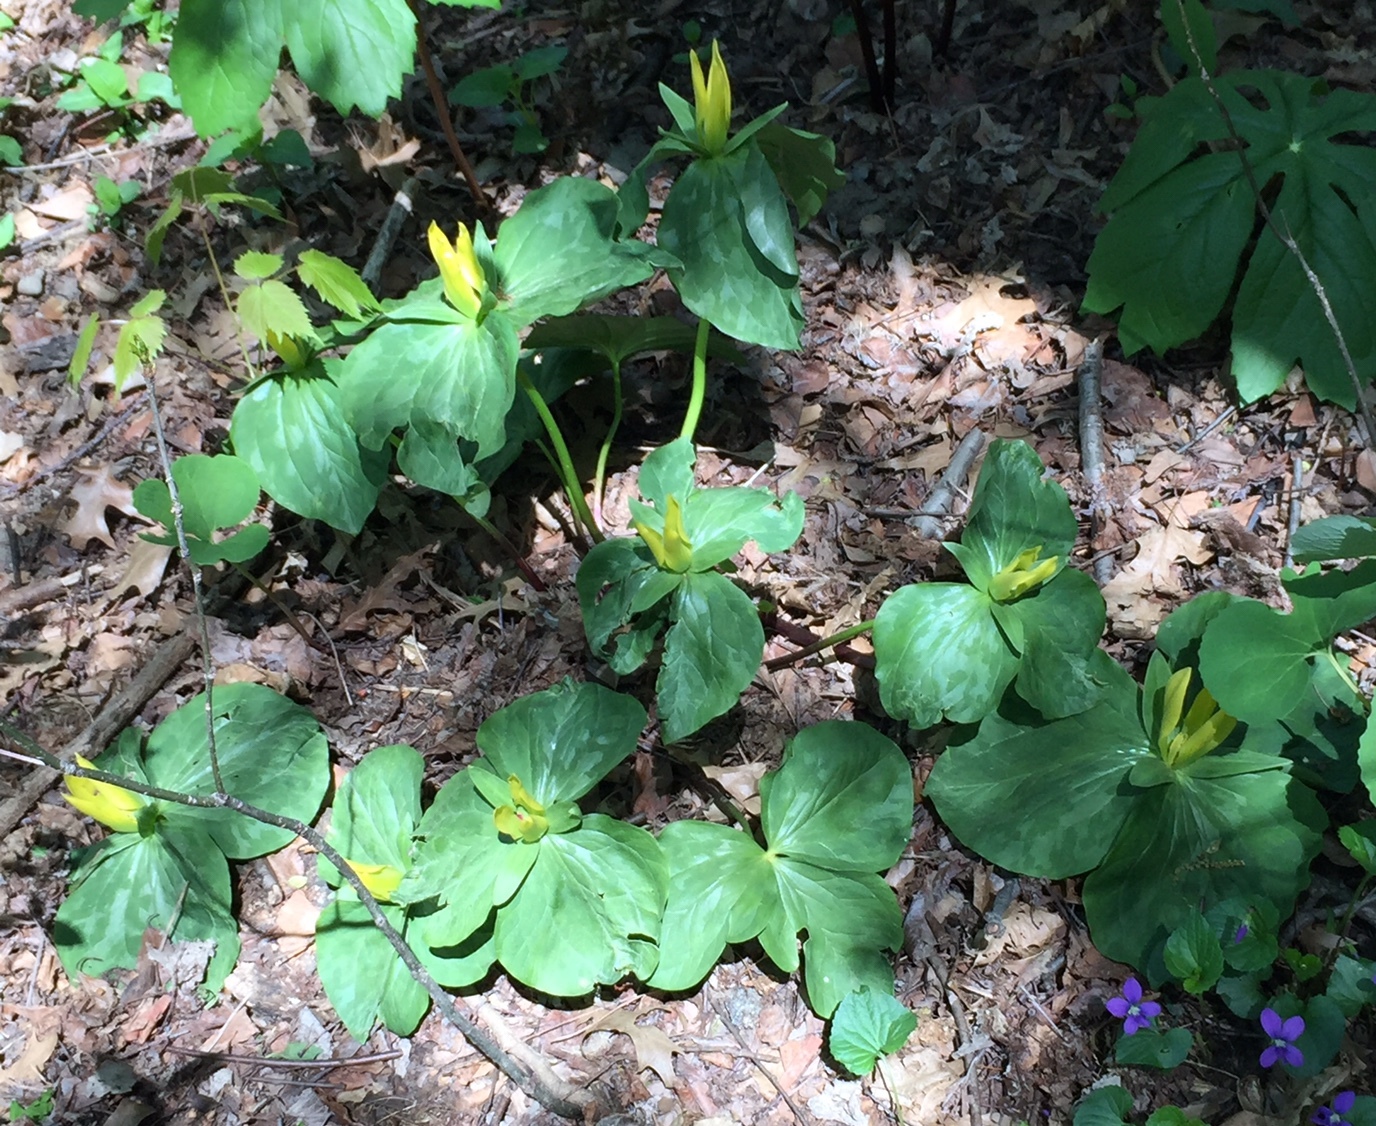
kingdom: Plantae
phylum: Tracheophyta
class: Liliopsida
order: Liliales
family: Melanthiaceae
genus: Trillium
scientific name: Trillium luteum
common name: Wax trillium
